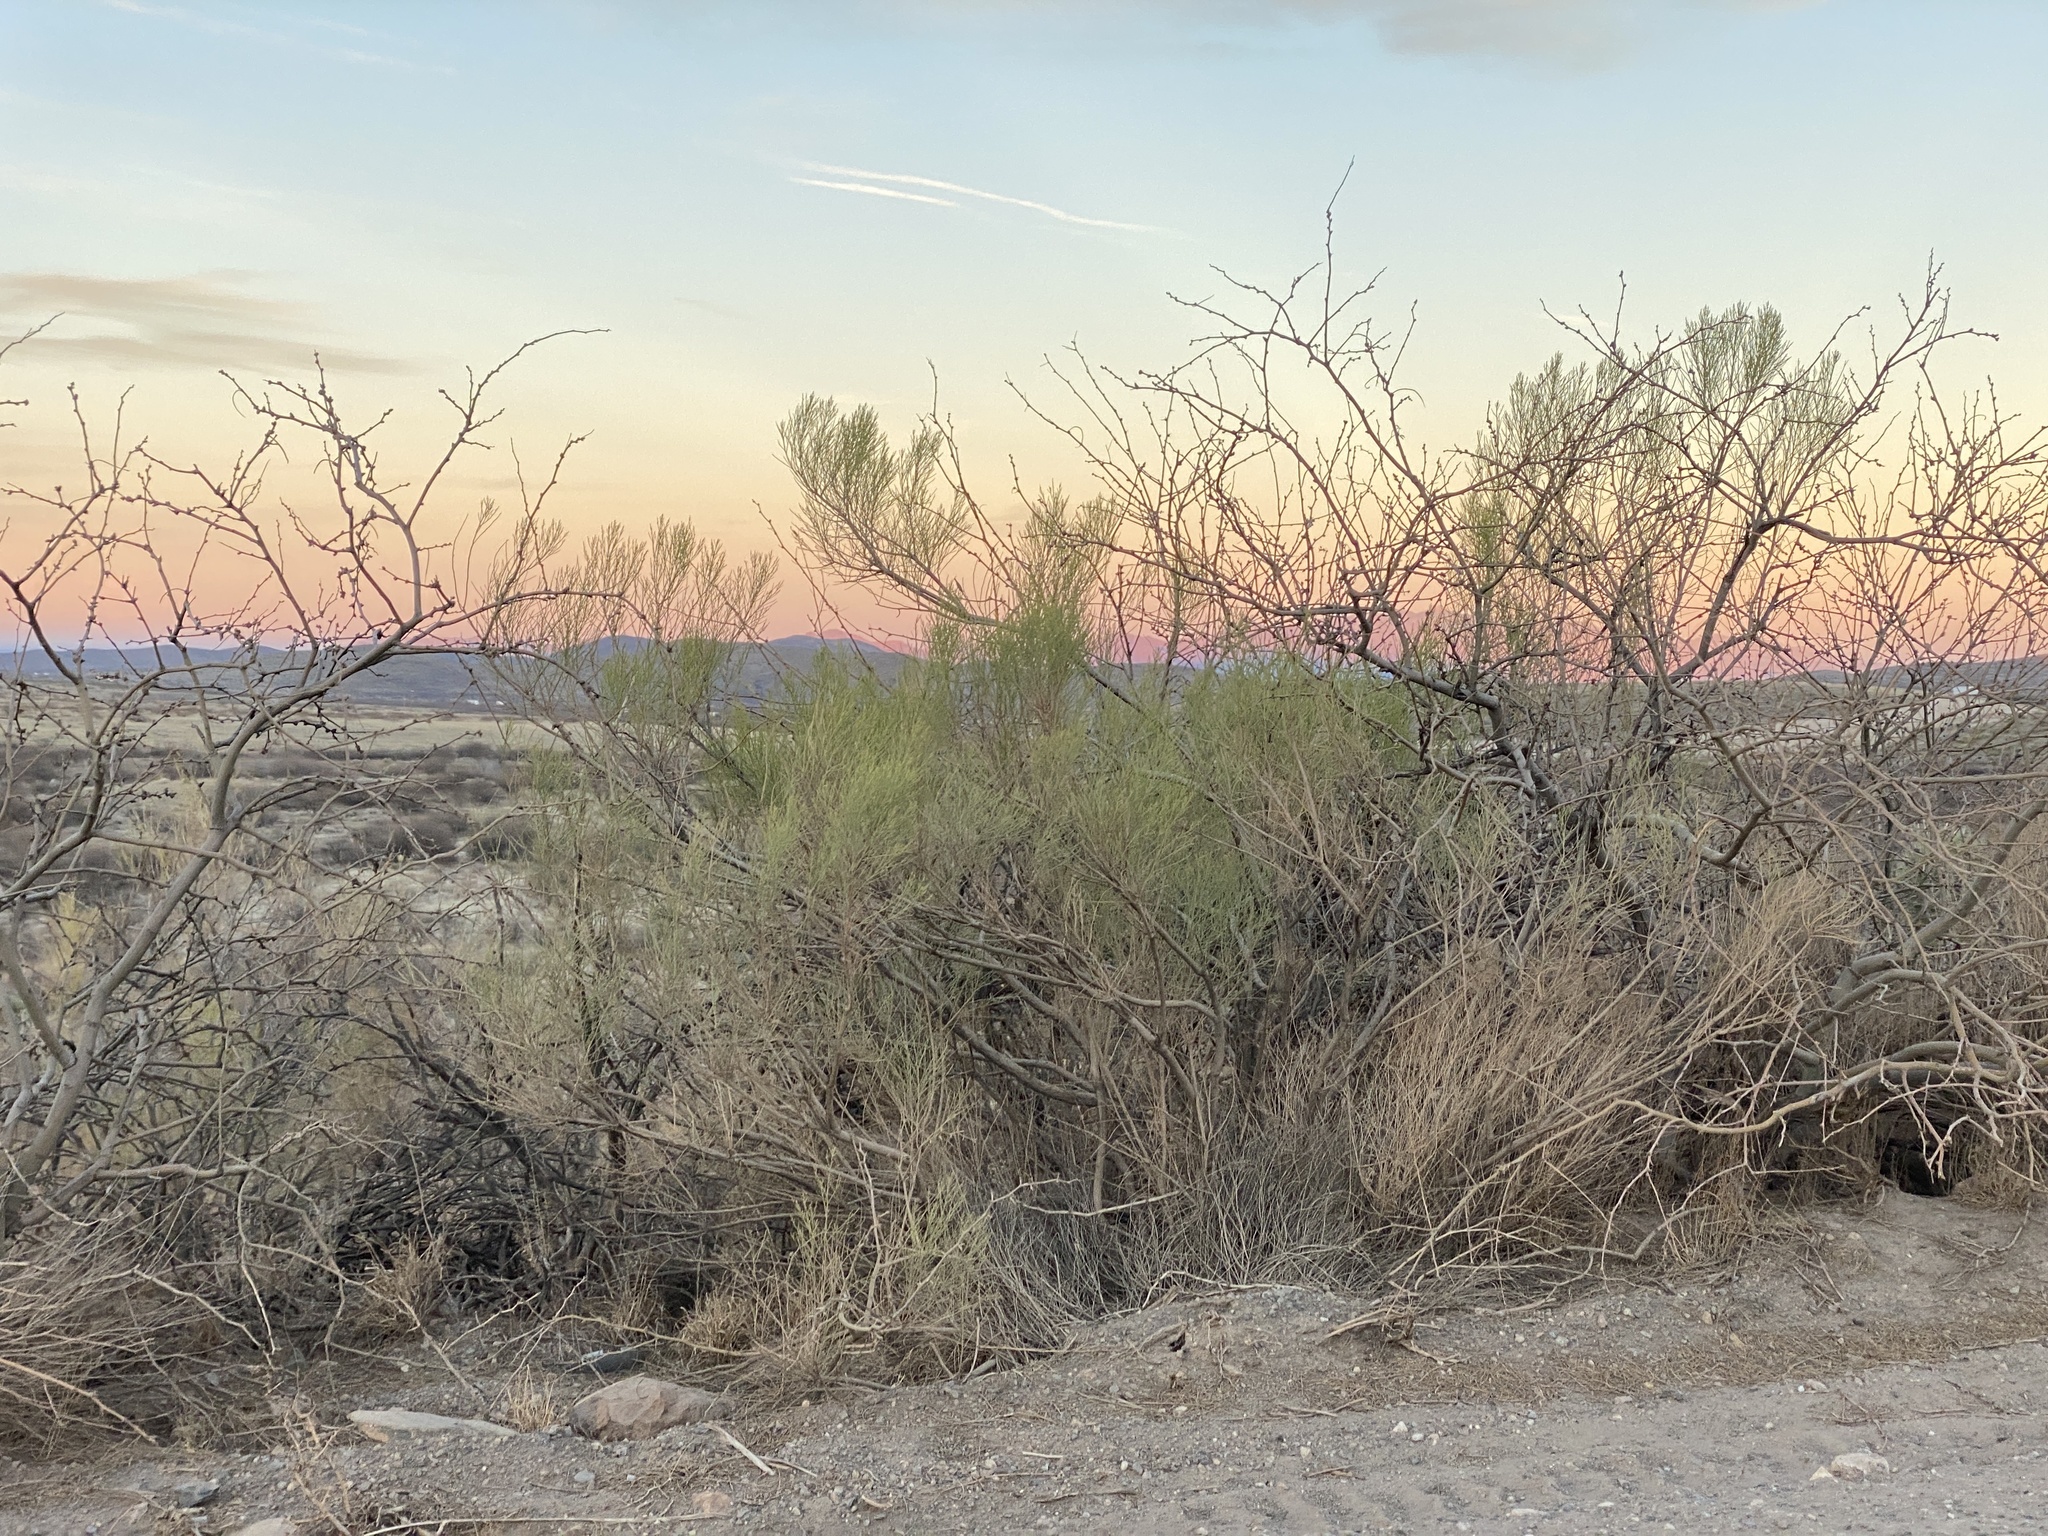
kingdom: Plantae
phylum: Tracheophyta
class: Magnoliopsida
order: Asterales
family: Asteraceae
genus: Baccharis
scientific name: Baccharis sarothroides
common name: Desert-broom
